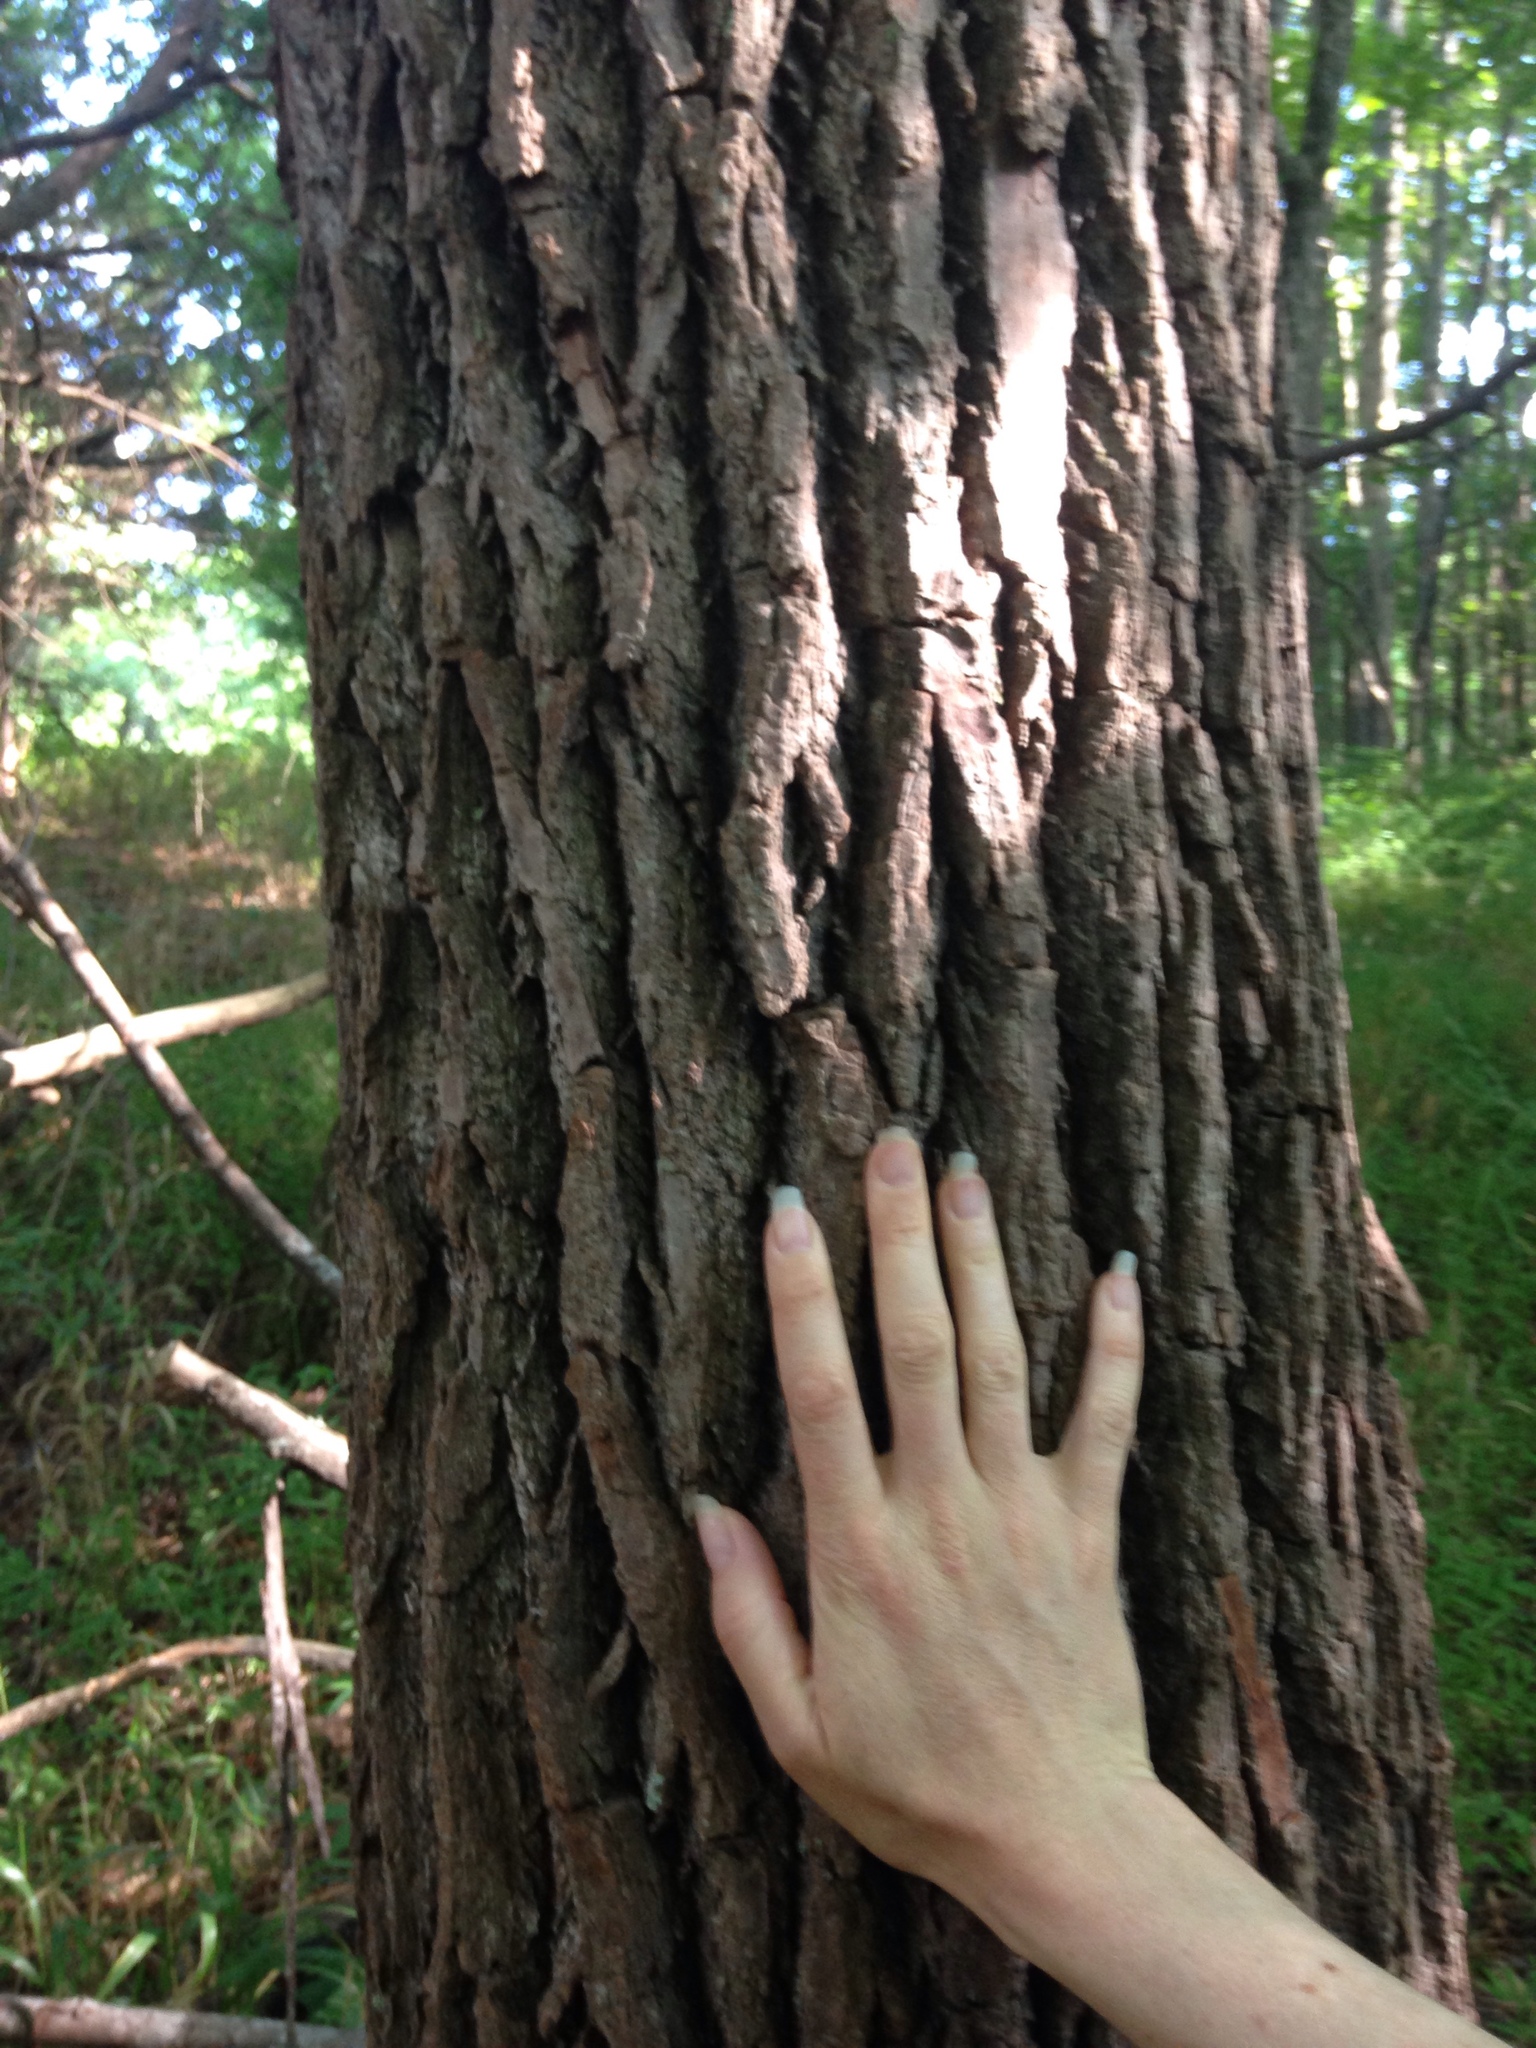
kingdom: Plantae
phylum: Tracheophyta
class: Magnoliopsida
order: Laurales
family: Lauraceae
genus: Sassafras
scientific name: Sassafras albidum
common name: Sassafras
